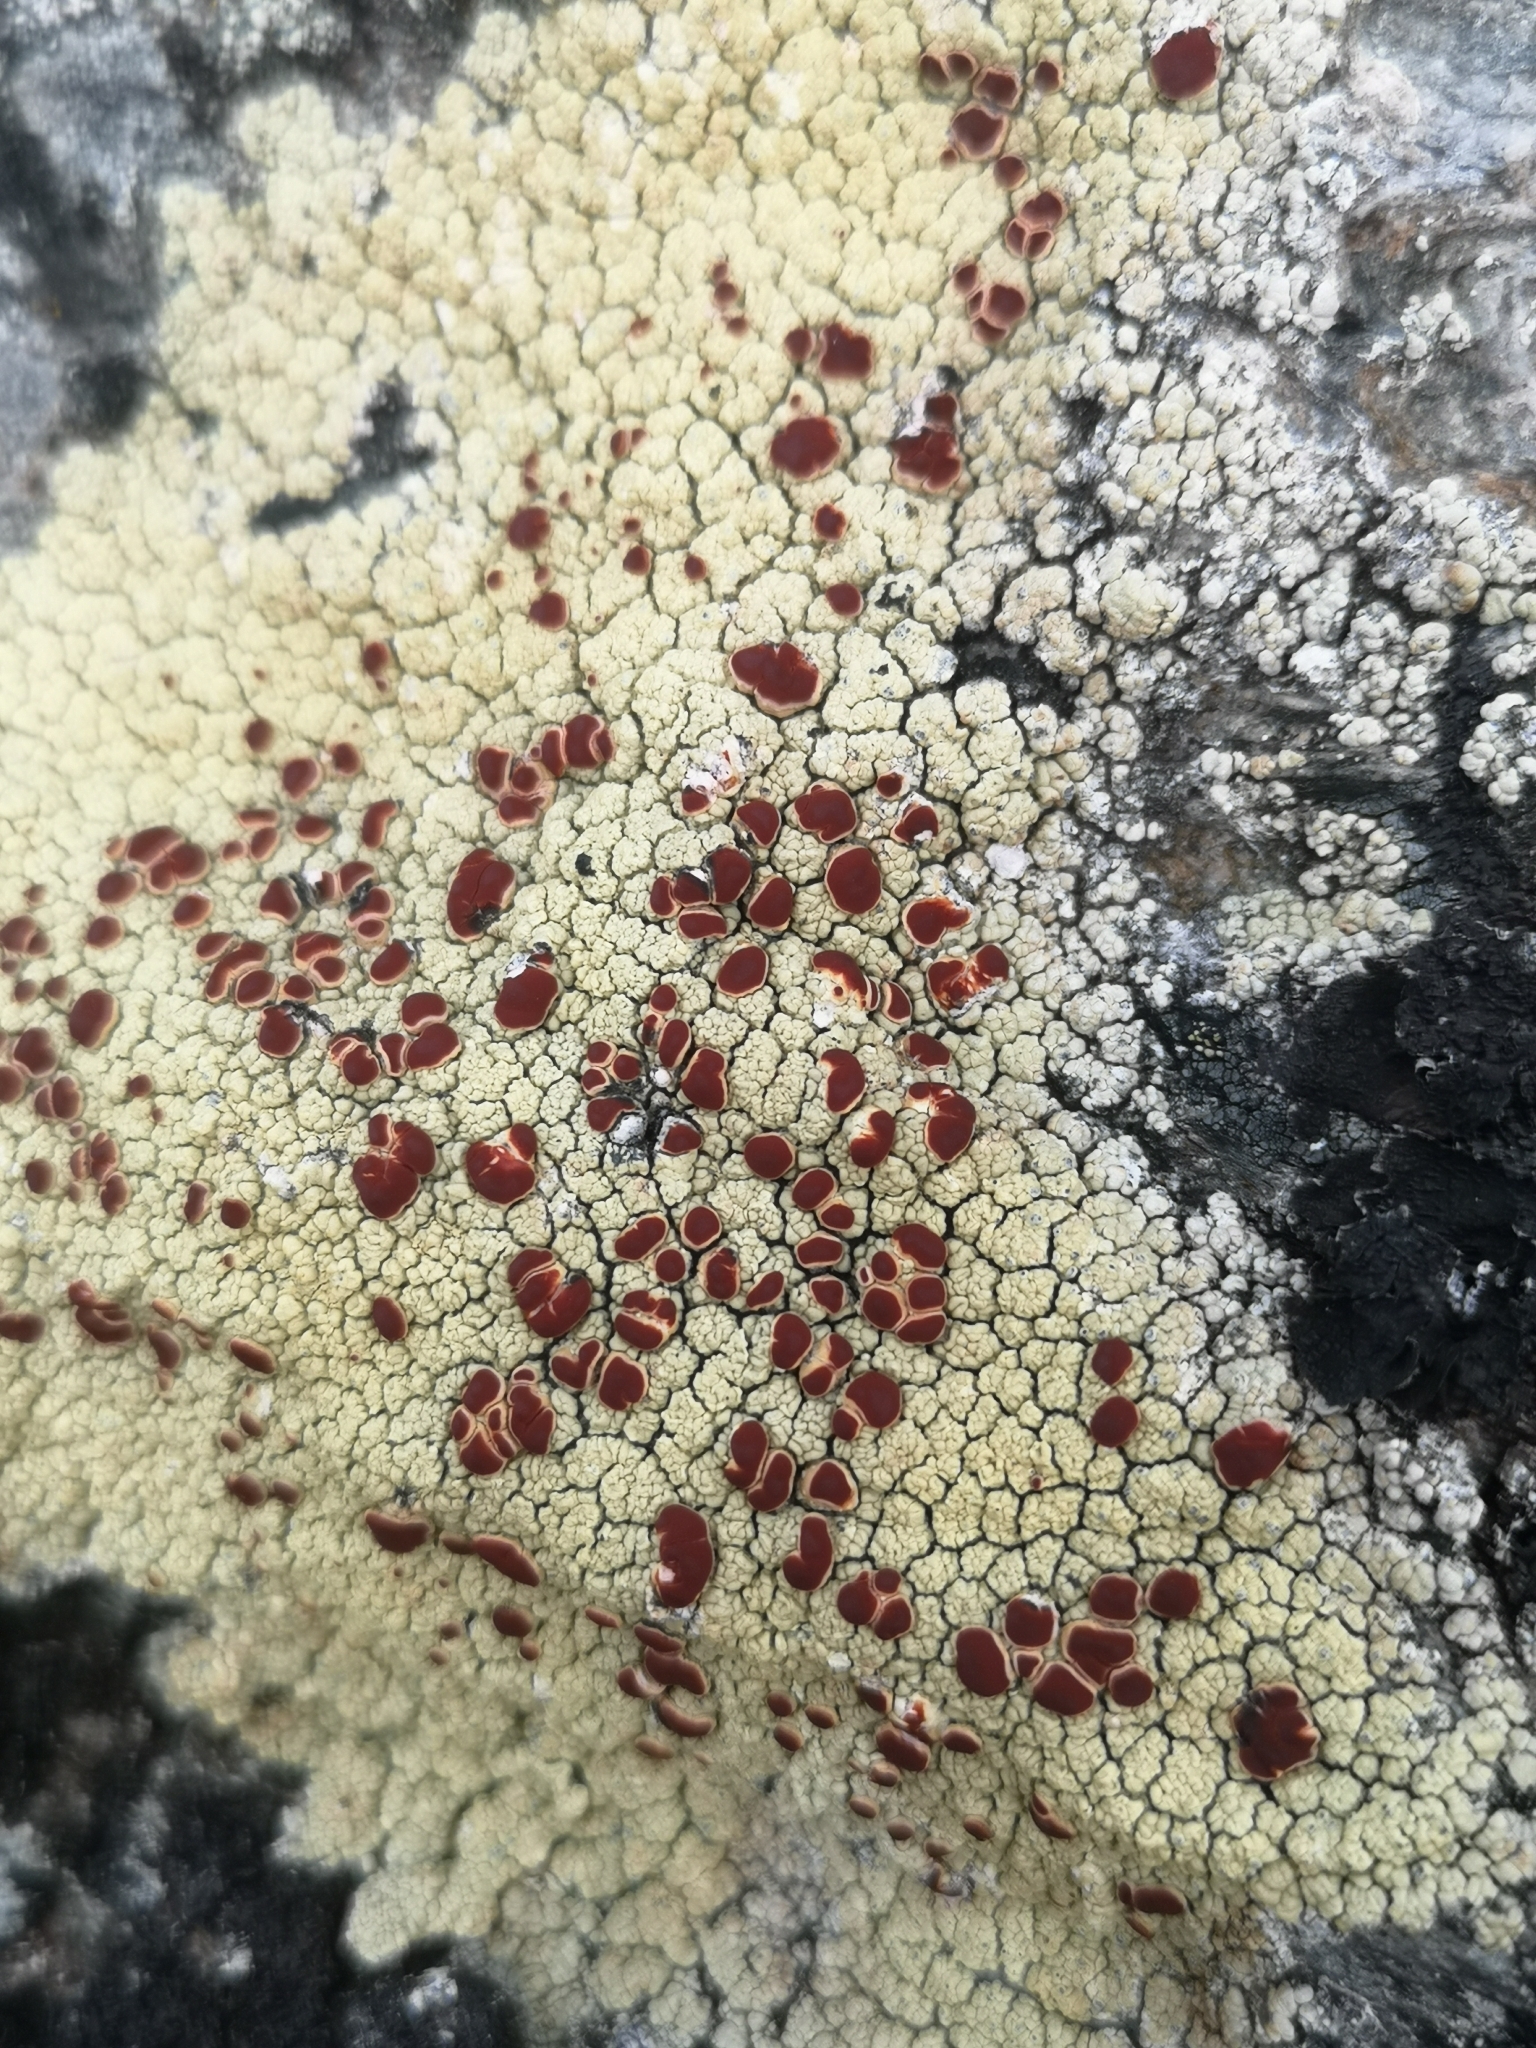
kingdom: Fungi
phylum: Ascomycota
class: Lecanoromycetes
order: Umbilicariales
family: Ophioparmaceae
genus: Ophioparma
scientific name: Ophioparma ventosa
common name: Blood-spot
